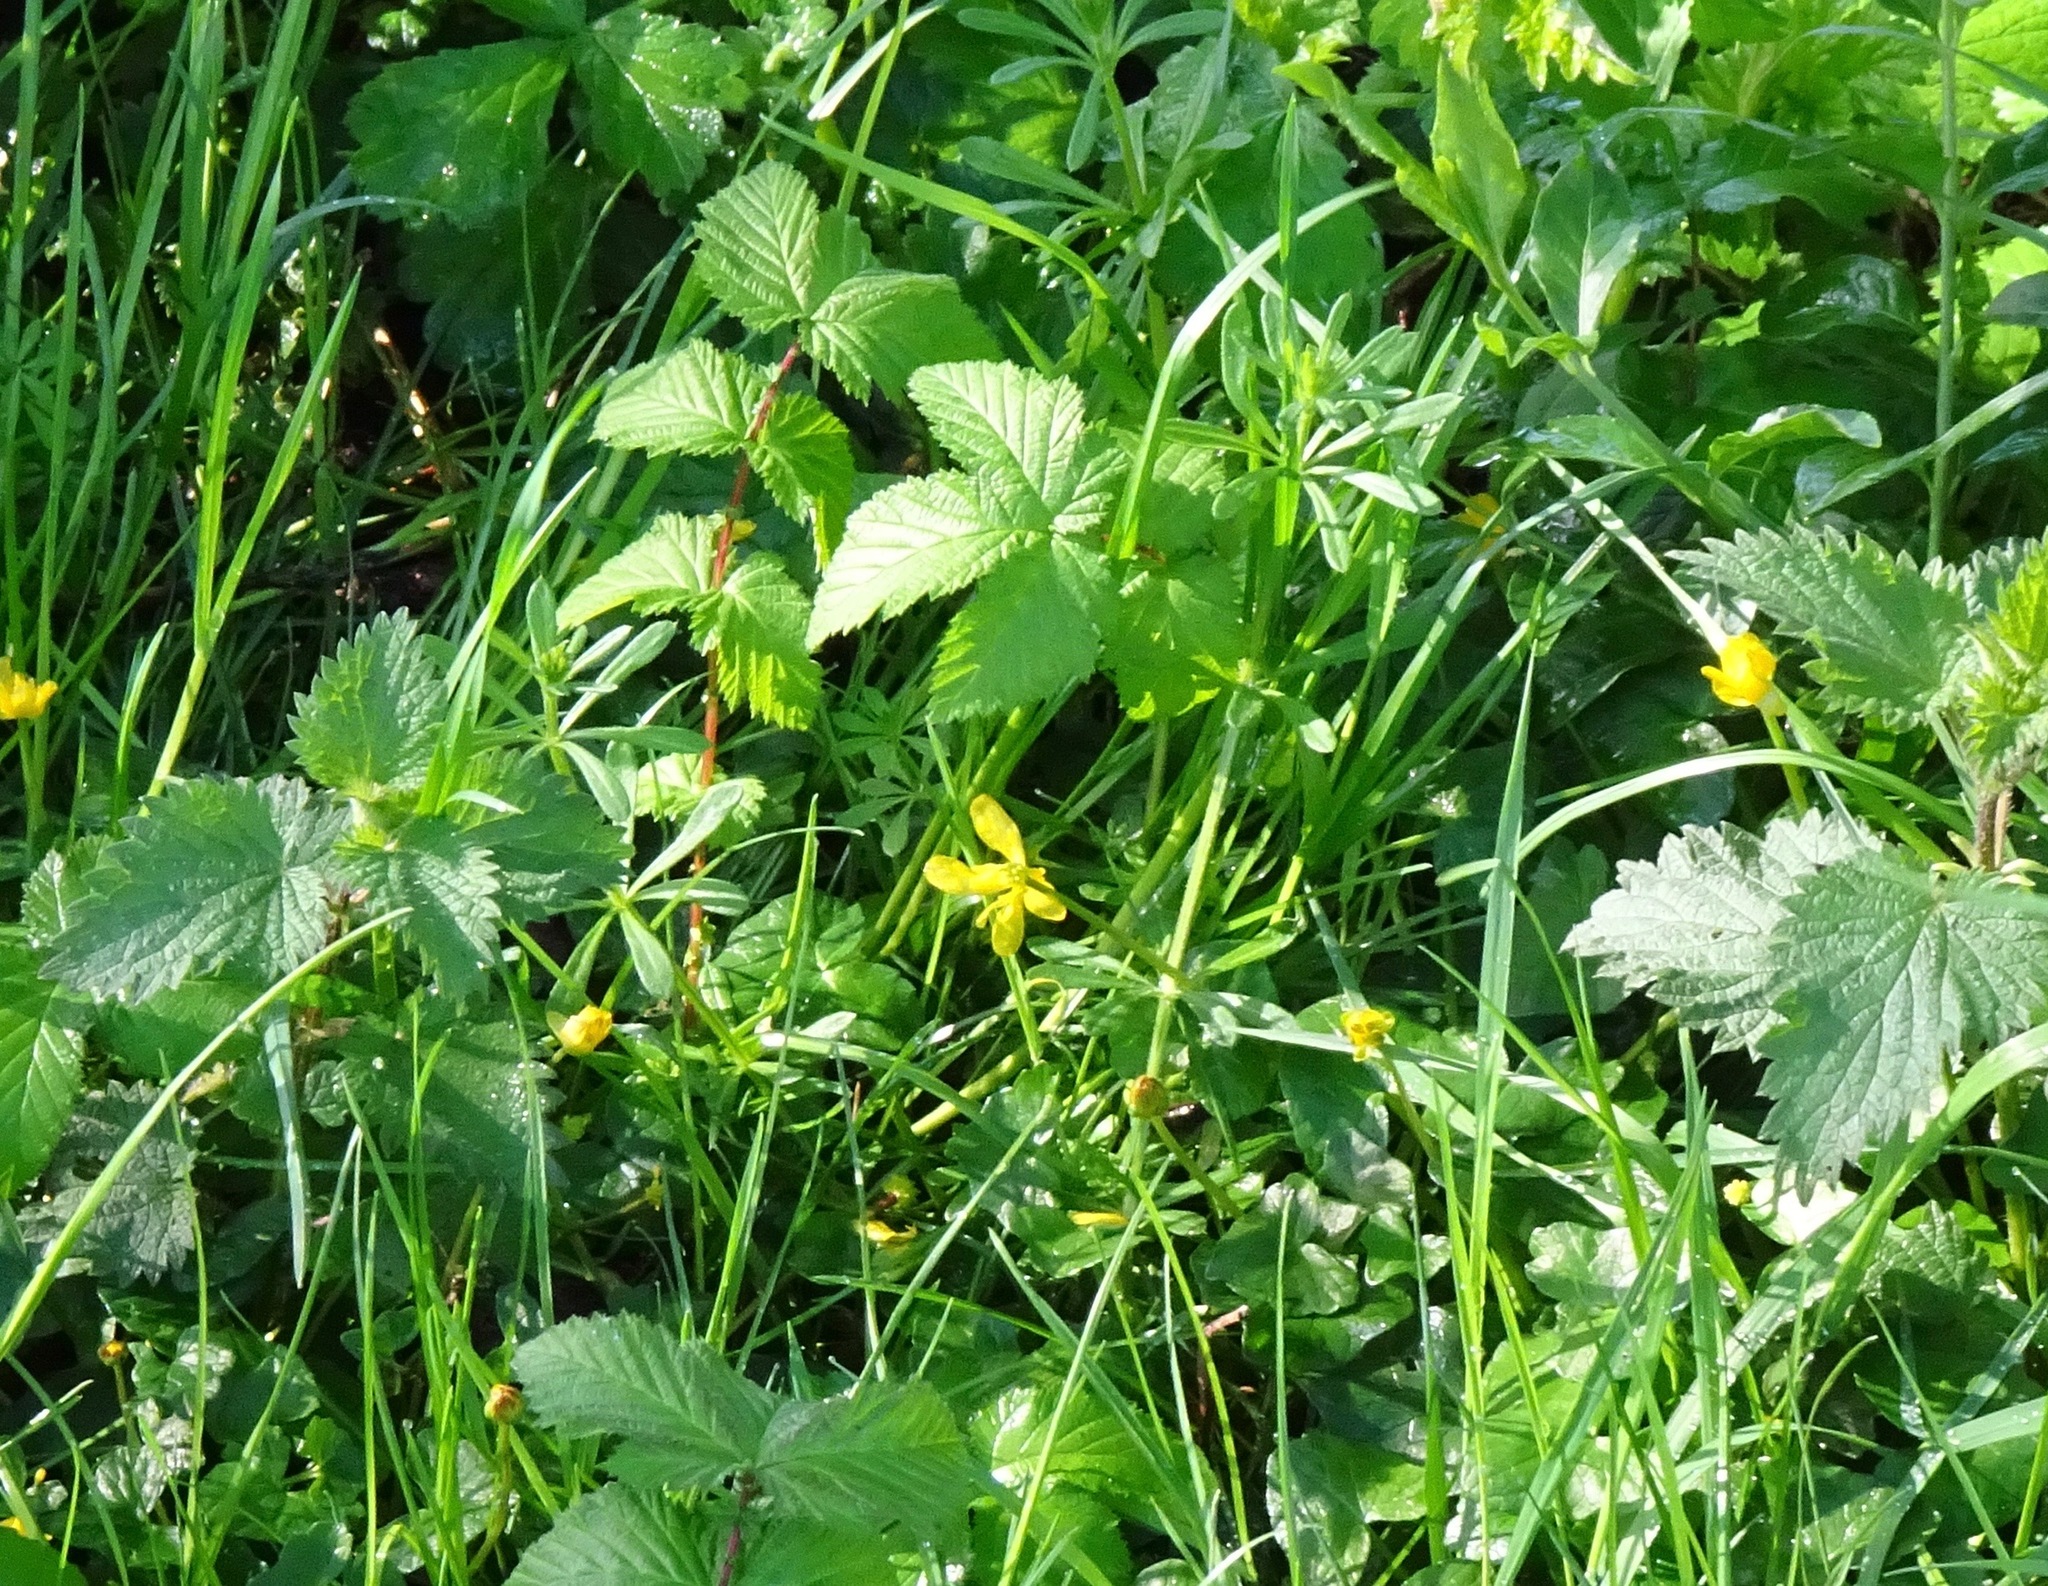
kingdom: Plantae
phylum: Tracheophyta
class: Magnoliopsida
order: Ranunculales
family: Ranunculaceae
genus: Ficaria
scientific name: Ficaria verna
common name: Lesser celandine
